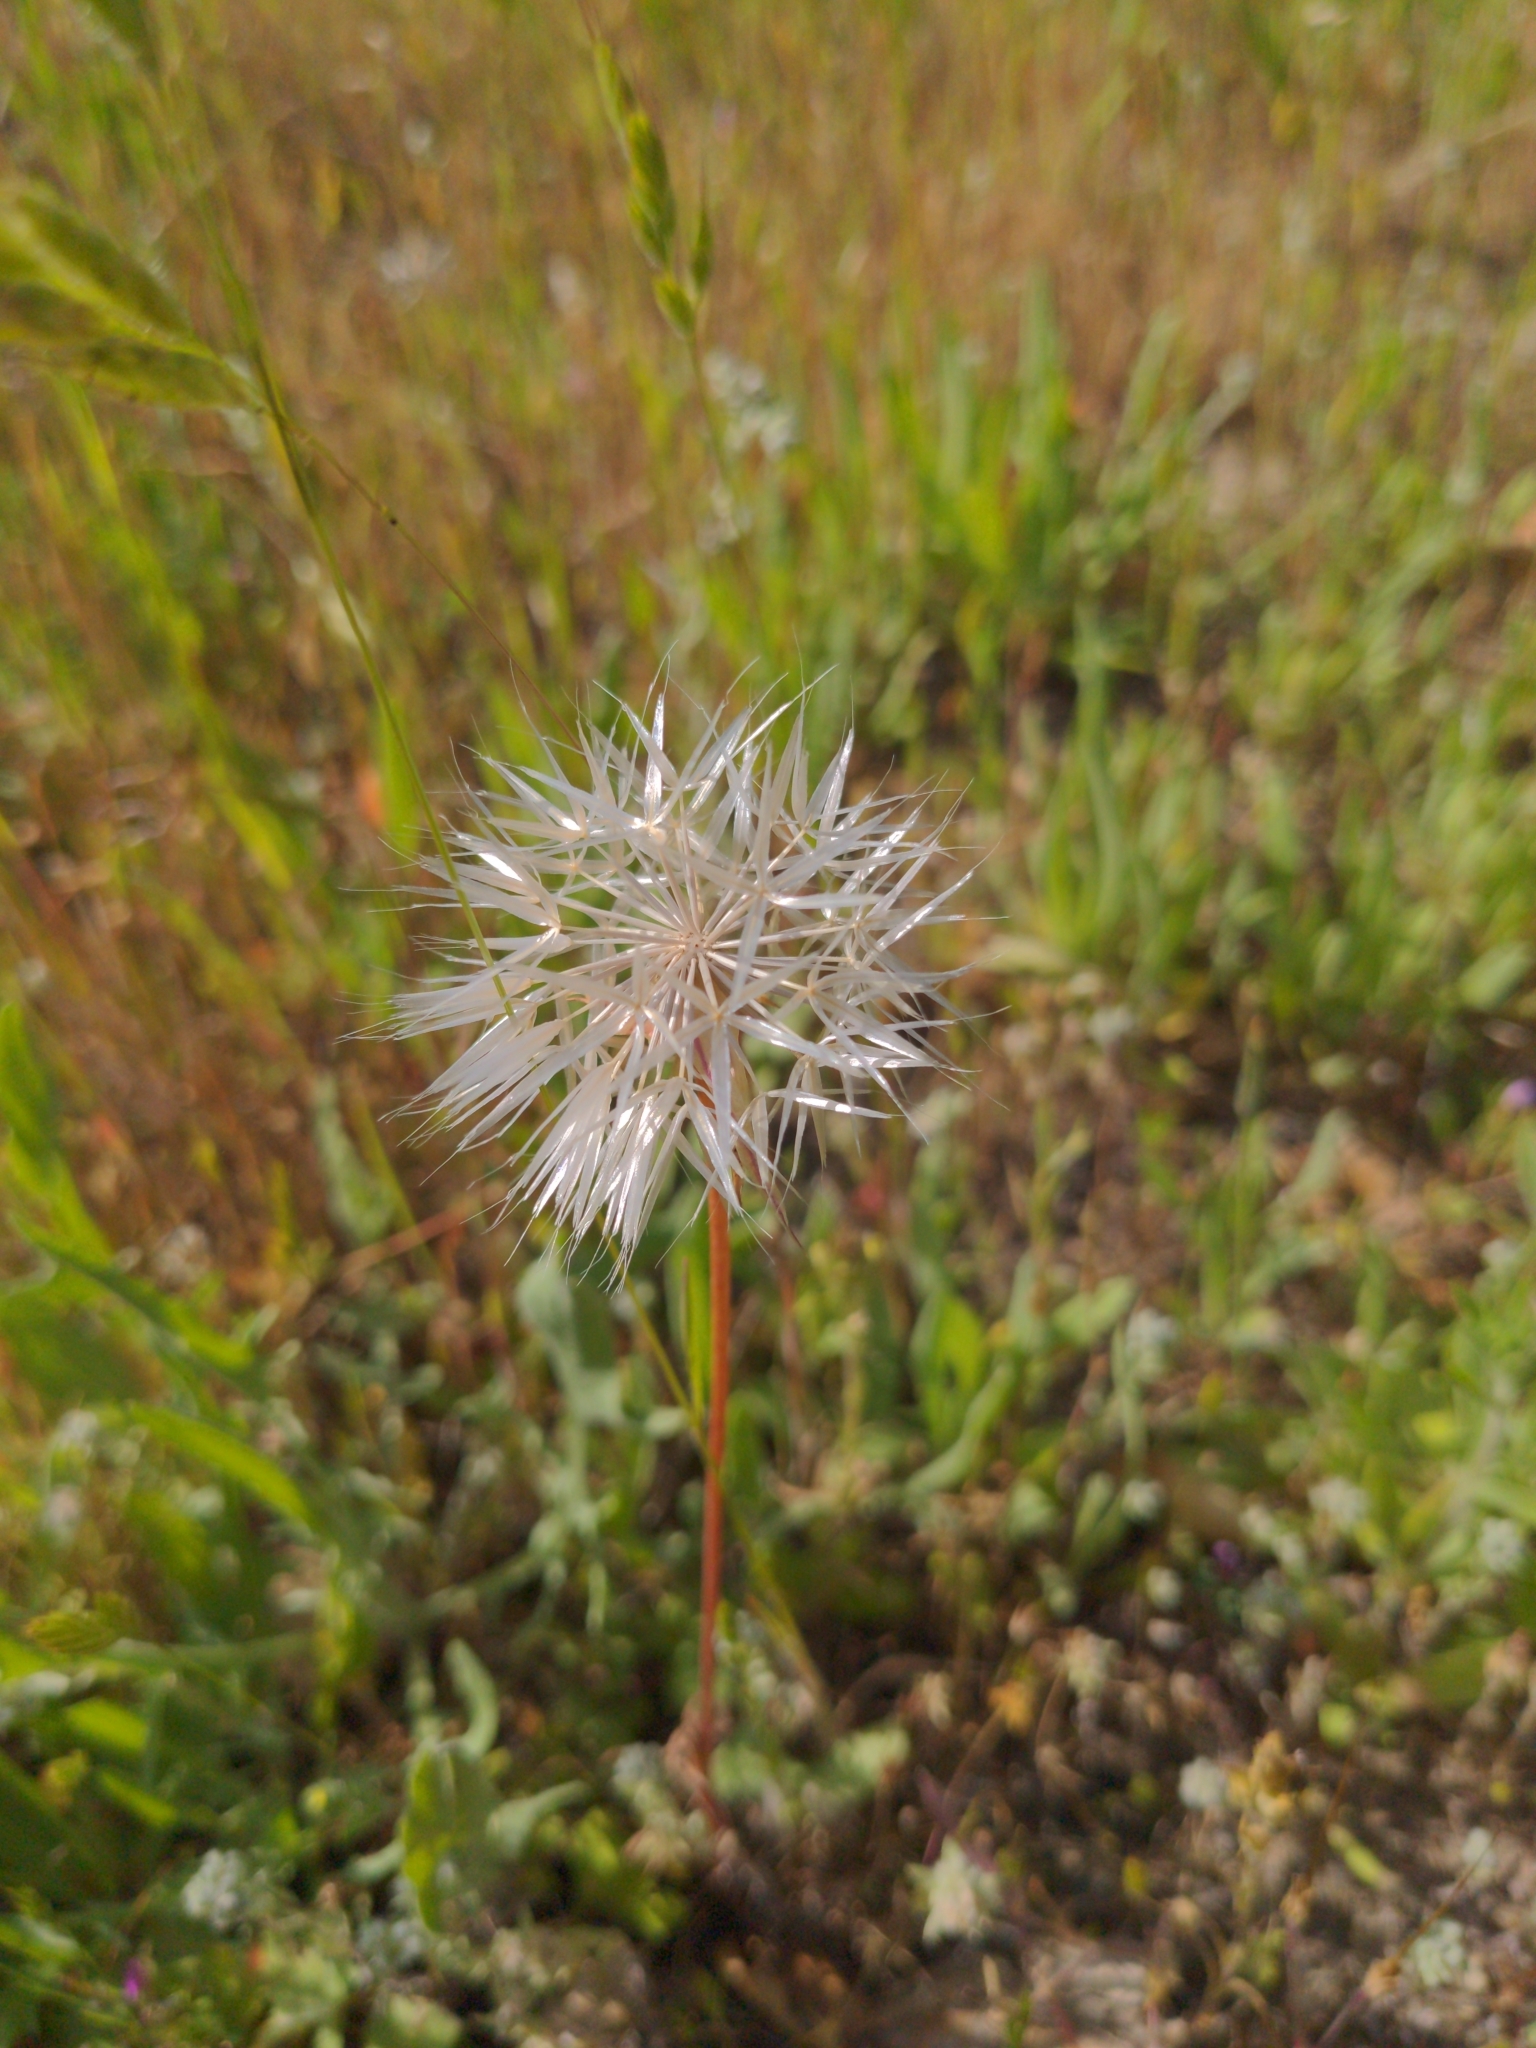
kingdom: Plantae
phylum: Tracheophyta
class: Magnoliopsida
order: Asterales
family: Asteraceae
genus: Microseris
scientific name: Microseris lindleyi
